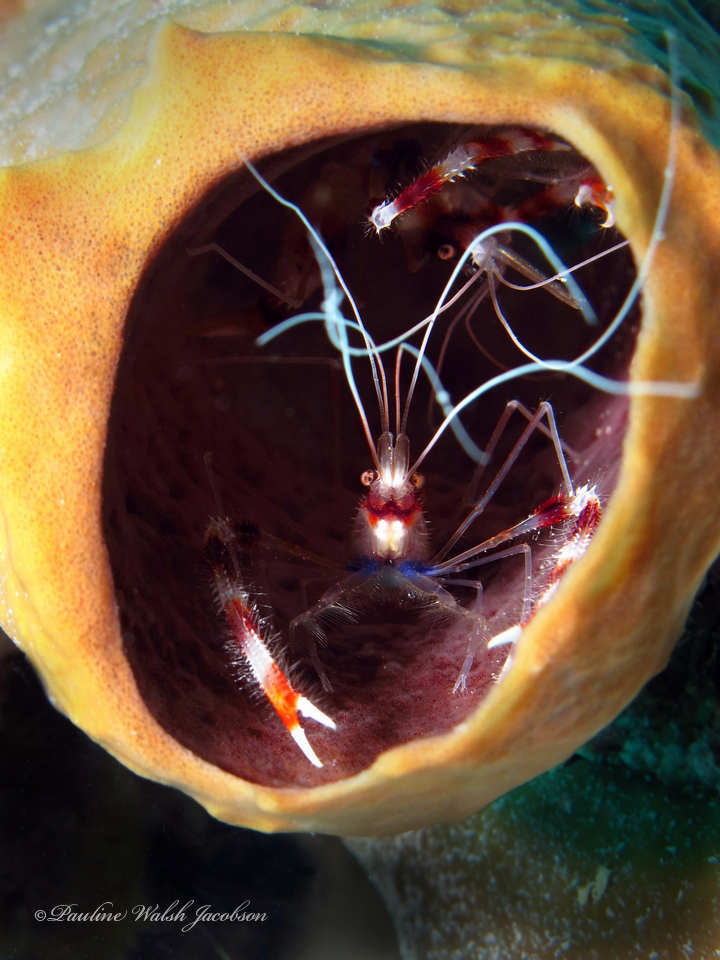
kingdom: Animalia
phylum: Arthropoda
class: Malacostraca
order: Decapoda
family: Stenopodidae
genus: Stenopus
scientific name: Stenopus hispidus
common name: Banded coral shrimp
